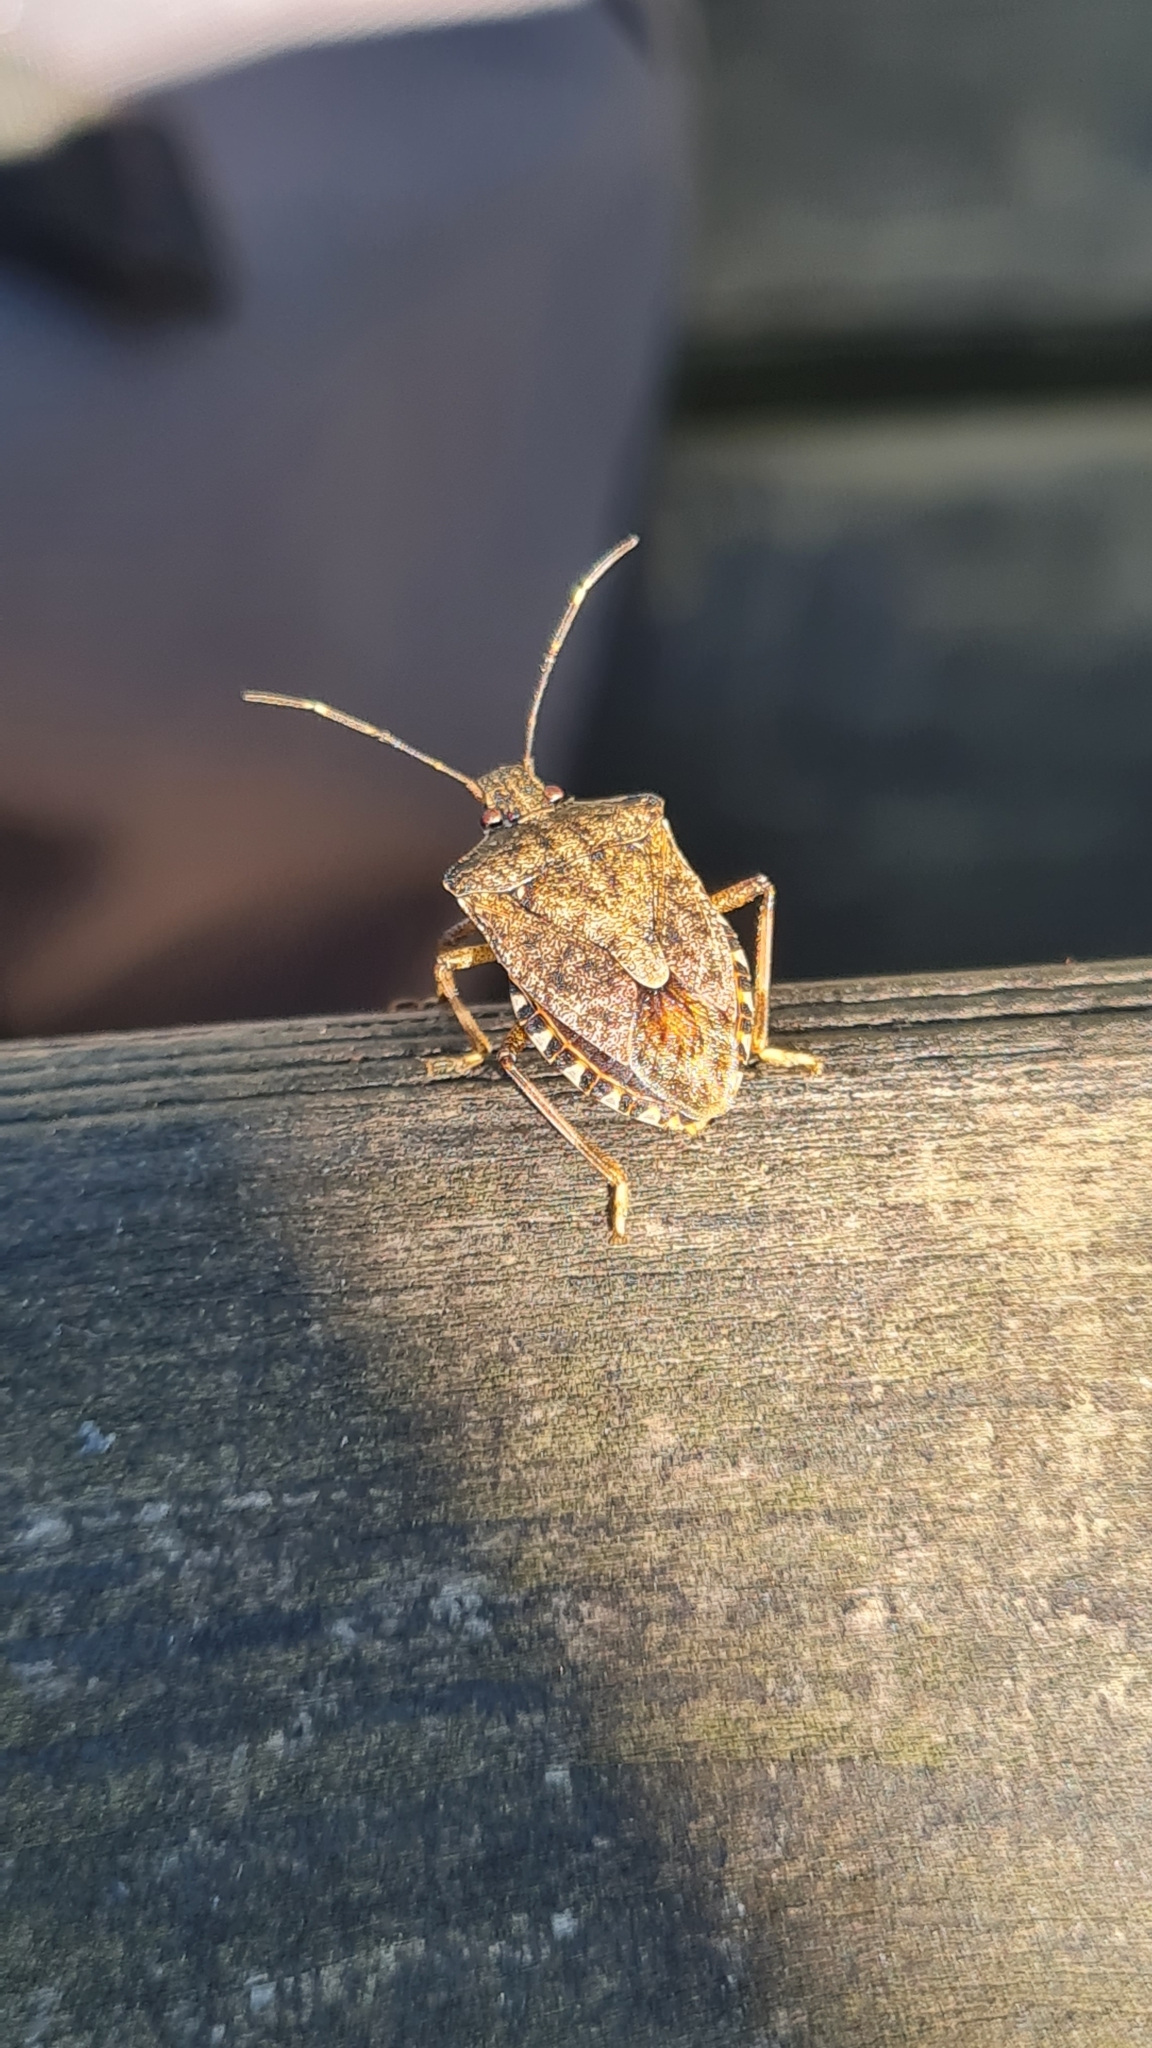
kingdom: Animalia
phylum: Arthropoda
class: Insecta
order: Hemiptera
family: Pentatomidae
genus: Halyomorpha
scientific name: Halyomorpha halys
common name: Brown marmorated stink bug
